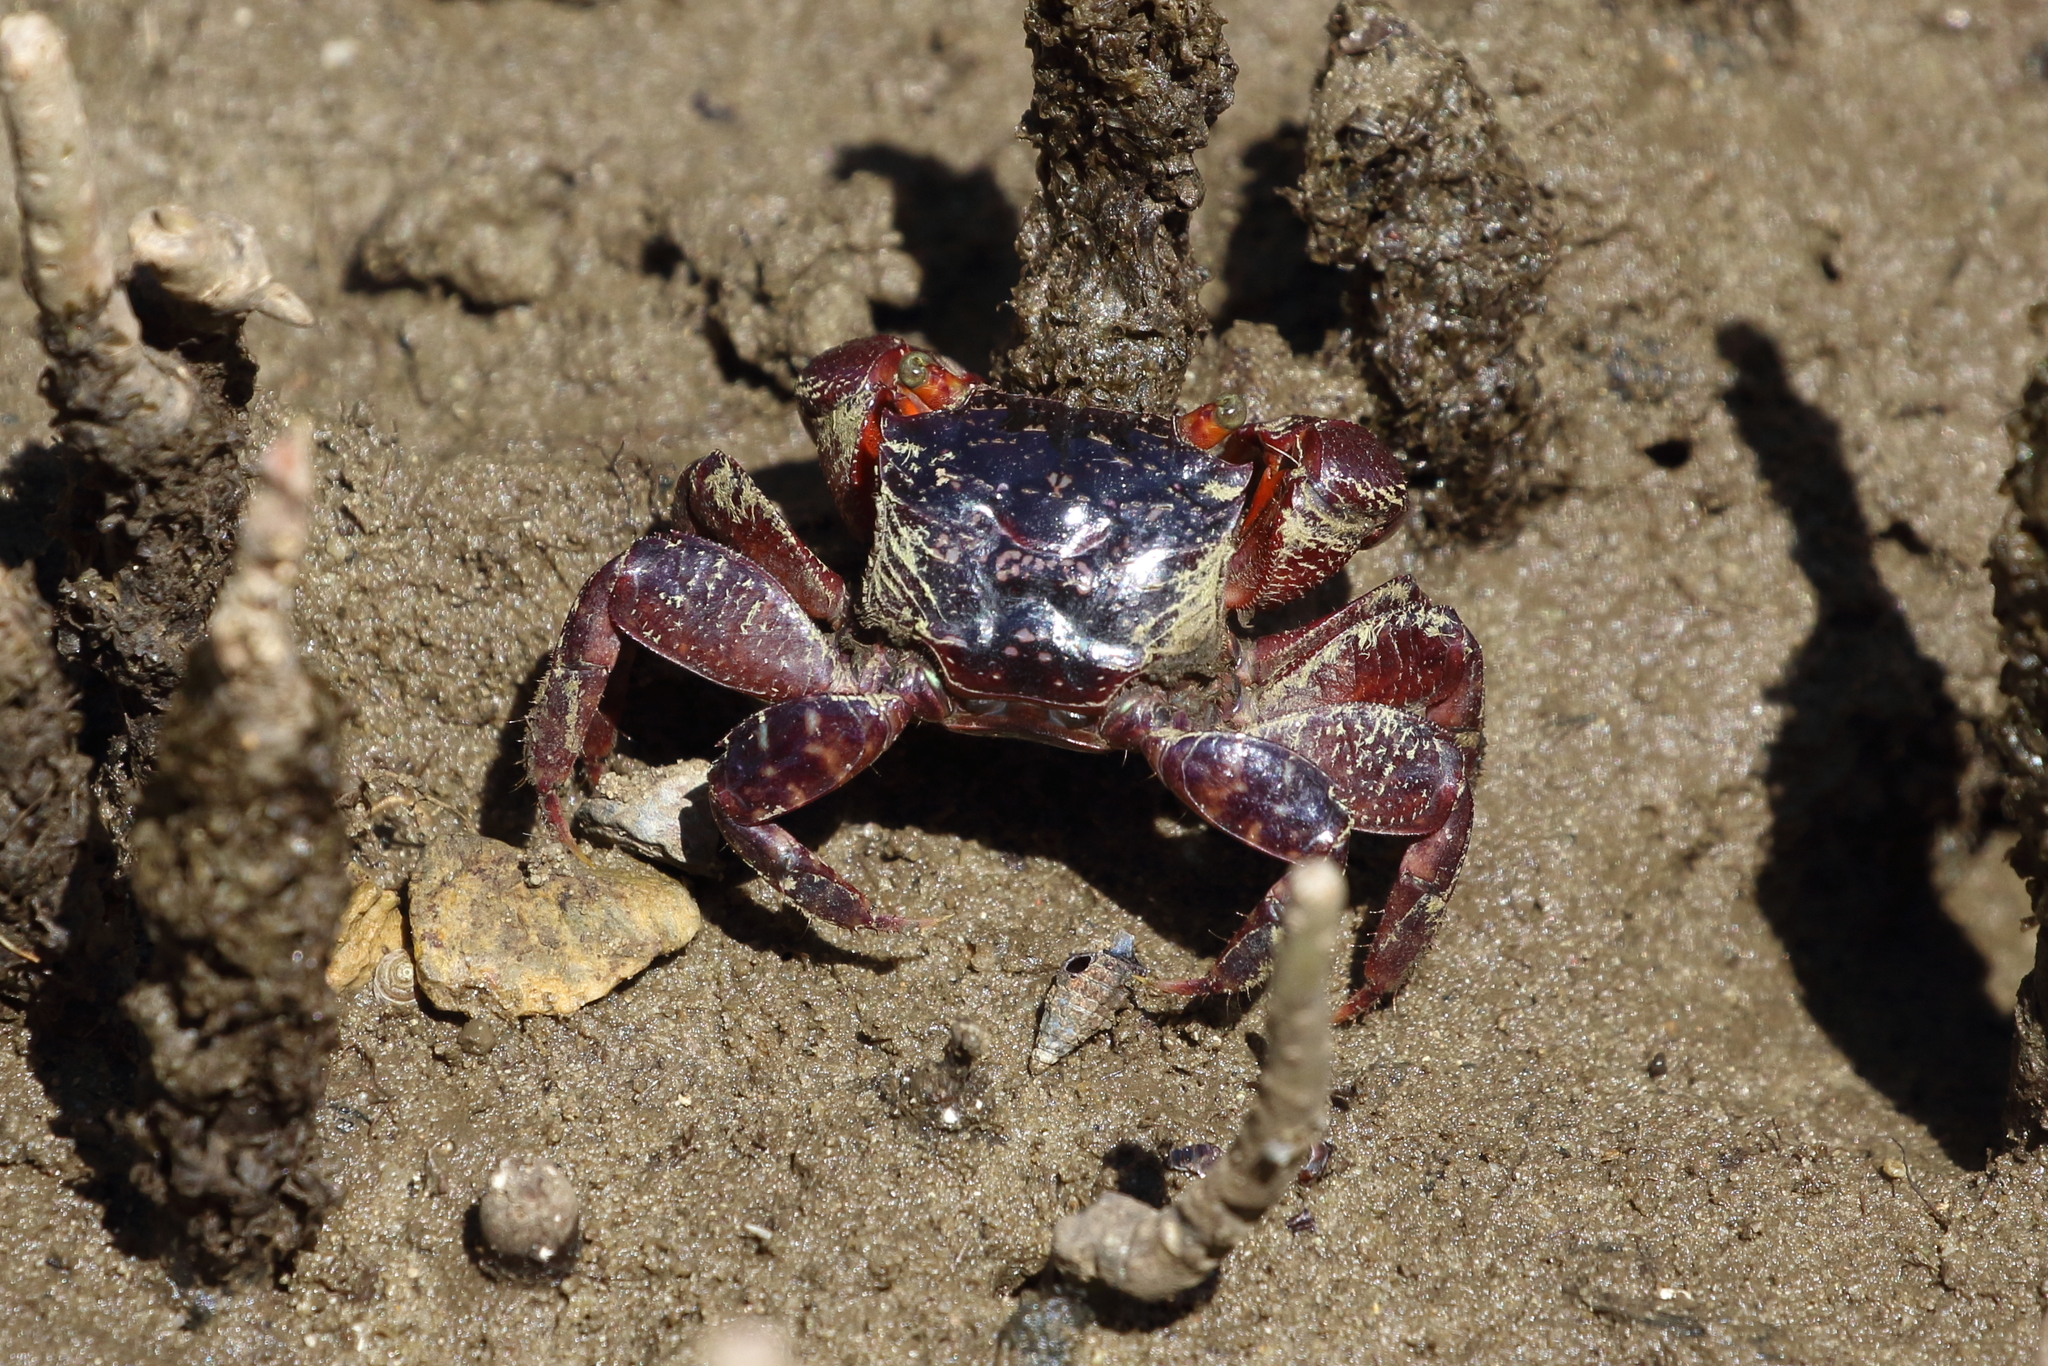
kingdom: Animalia
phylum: Arthropoda
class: Malacostraca
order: Decapoda
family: Sesarmidae
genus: Parasesarma
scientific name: Parasesarma messa
